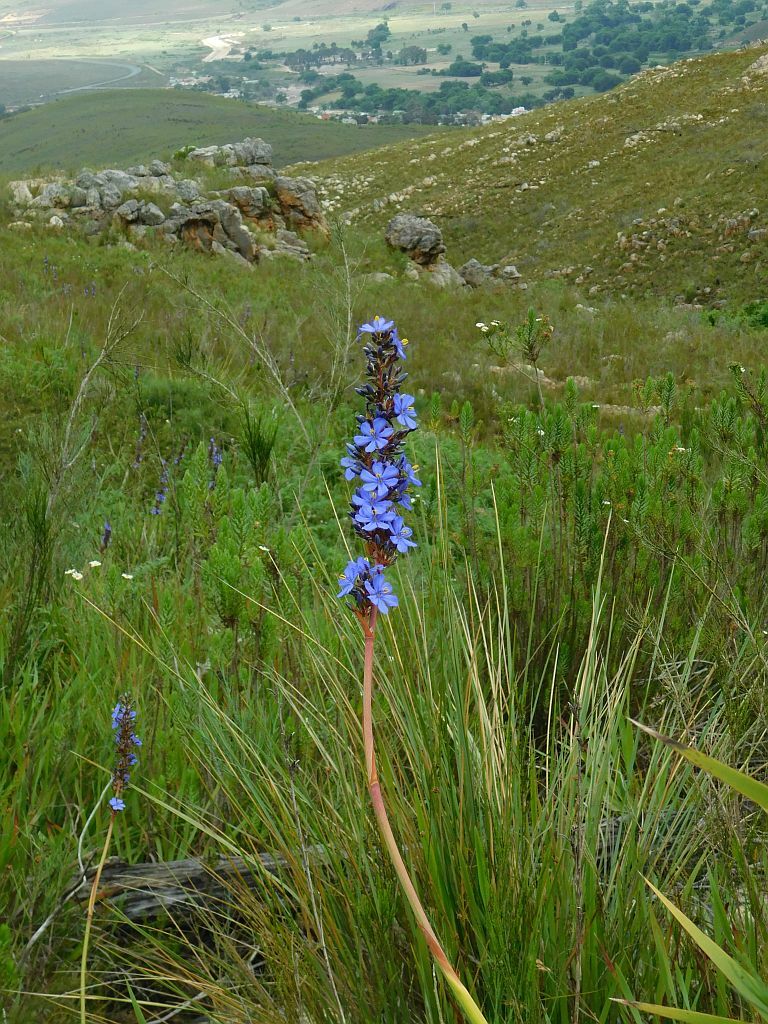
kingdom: Plantae
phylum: Tracheophyta
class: Liliopsida
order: Asparagales
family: Iridaceae
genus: Aristea
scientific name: Aristea capitata
